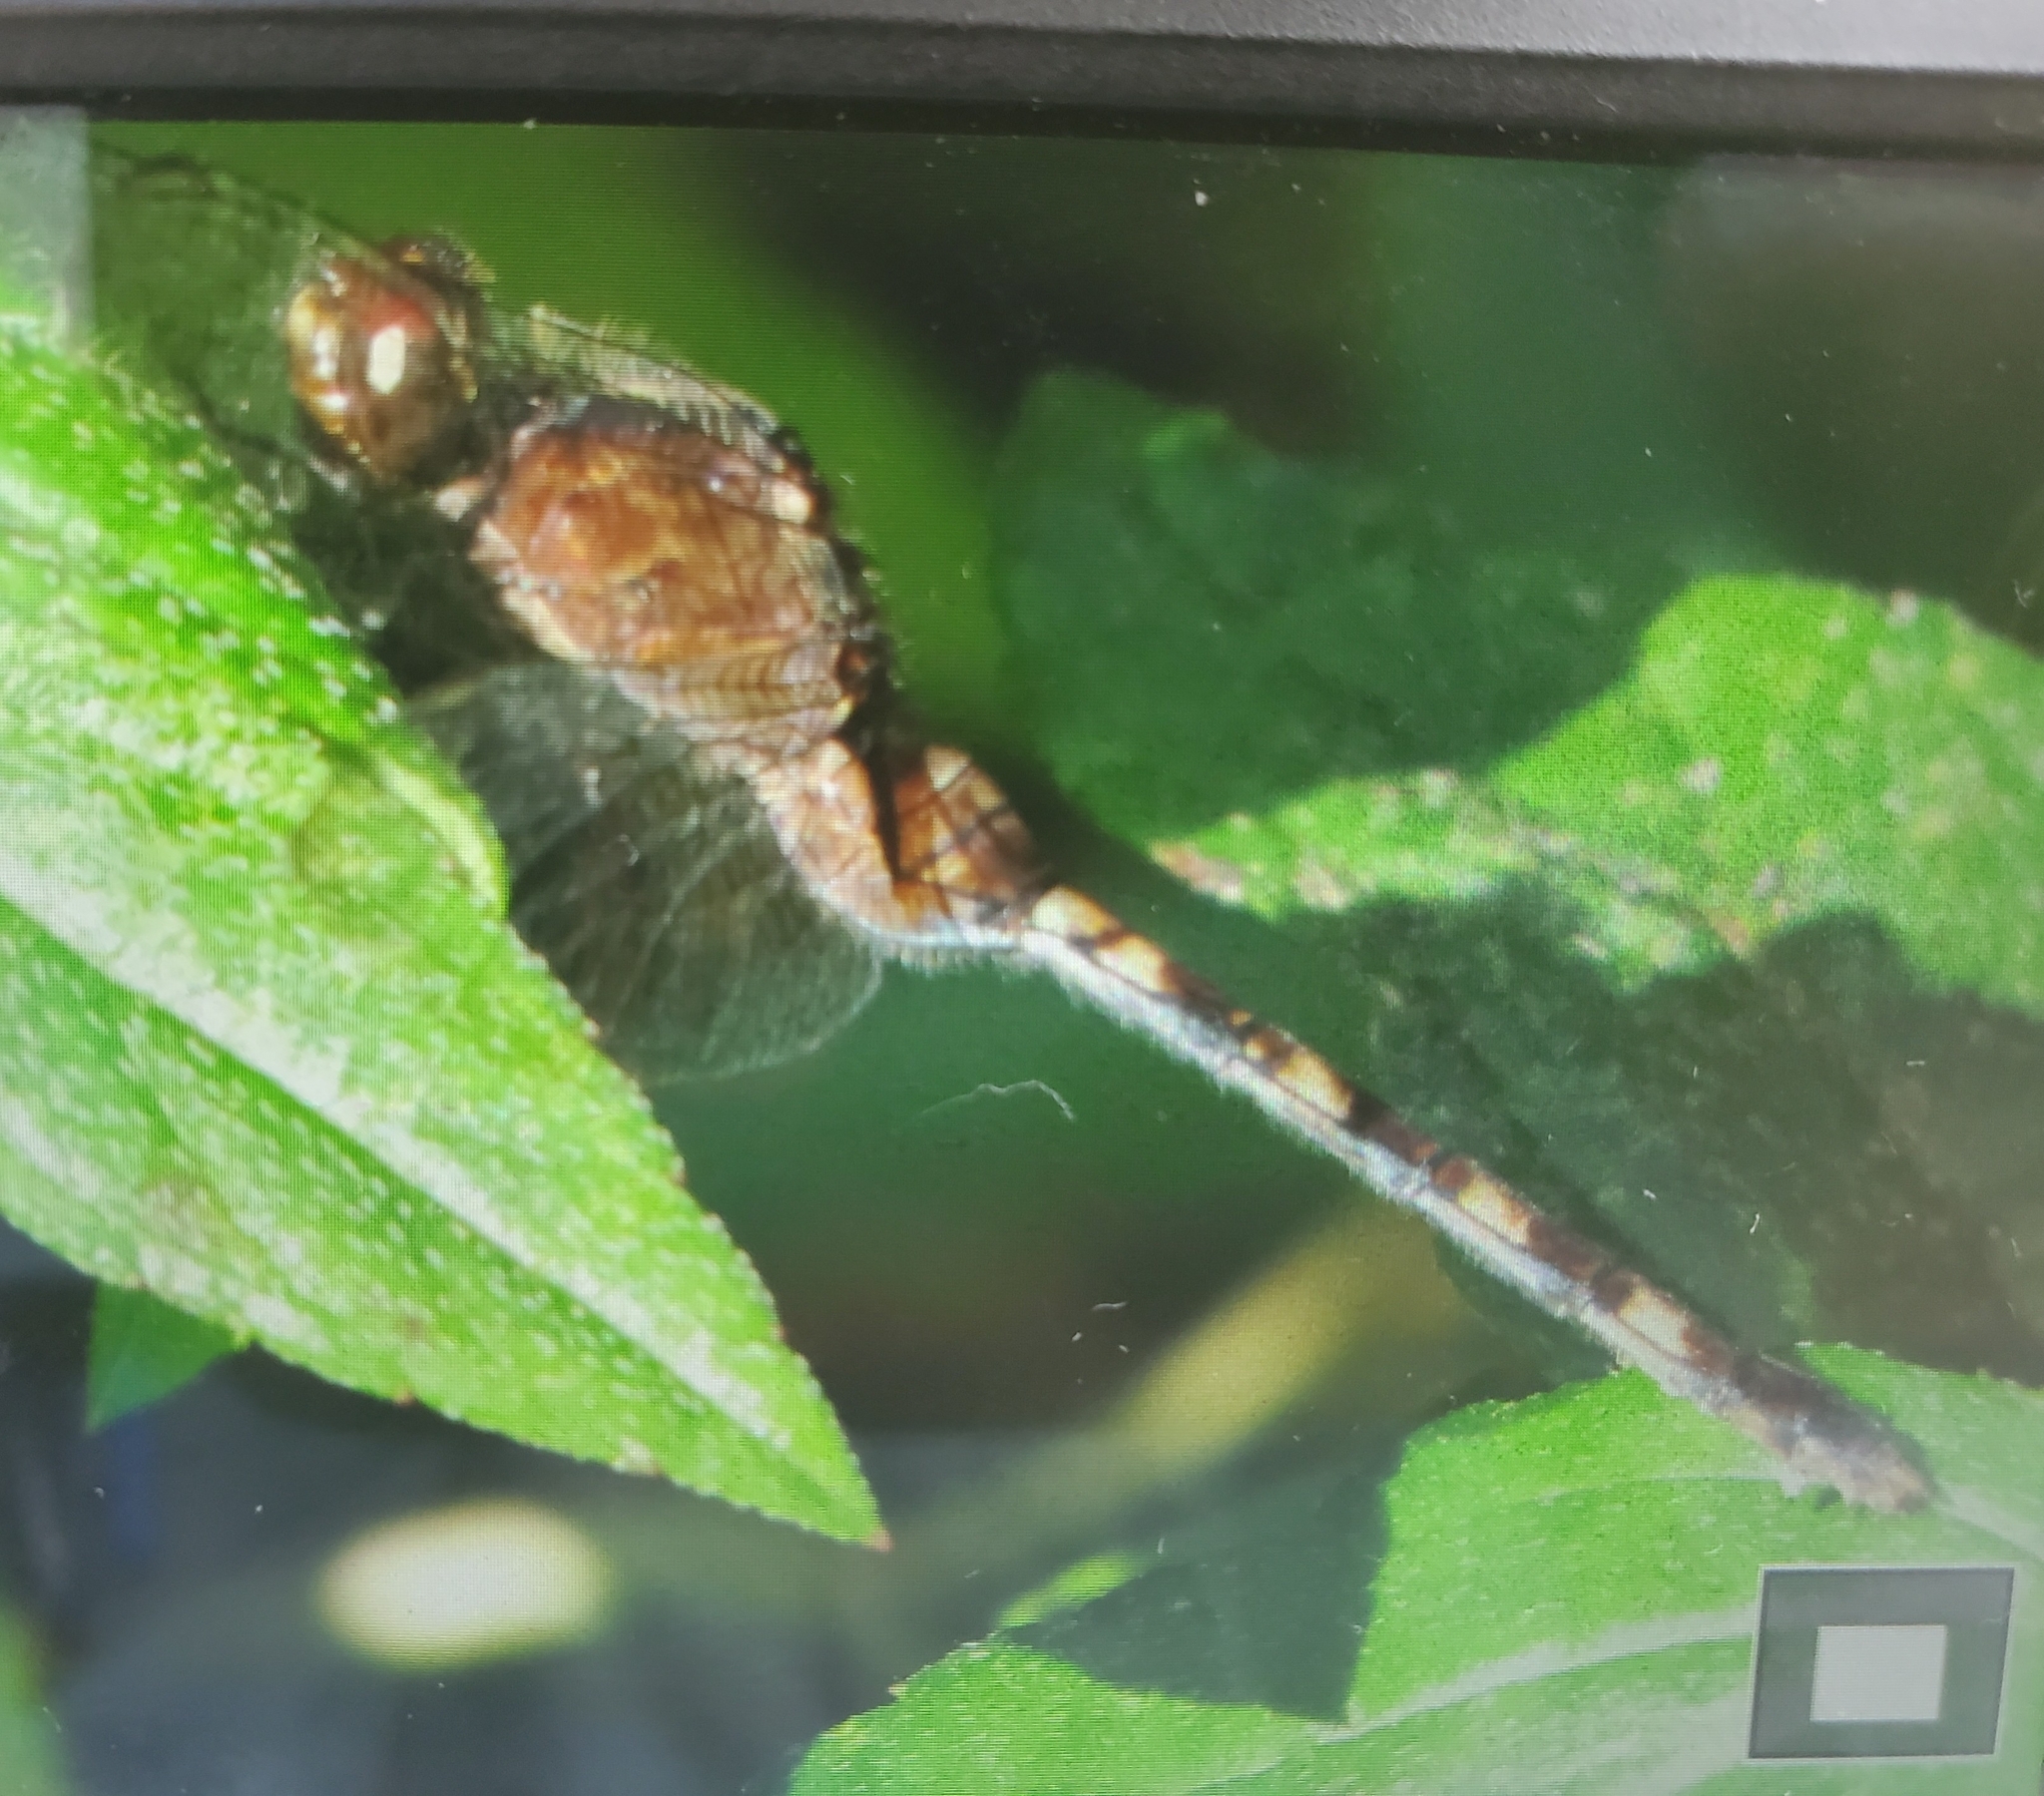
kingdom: Animalia
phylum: Arthropoda
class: Insecta
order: Odonata
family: Libellulidae
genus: Erythemis
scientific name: Erythemis plebeja
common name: Pin-tailed pondhawk
